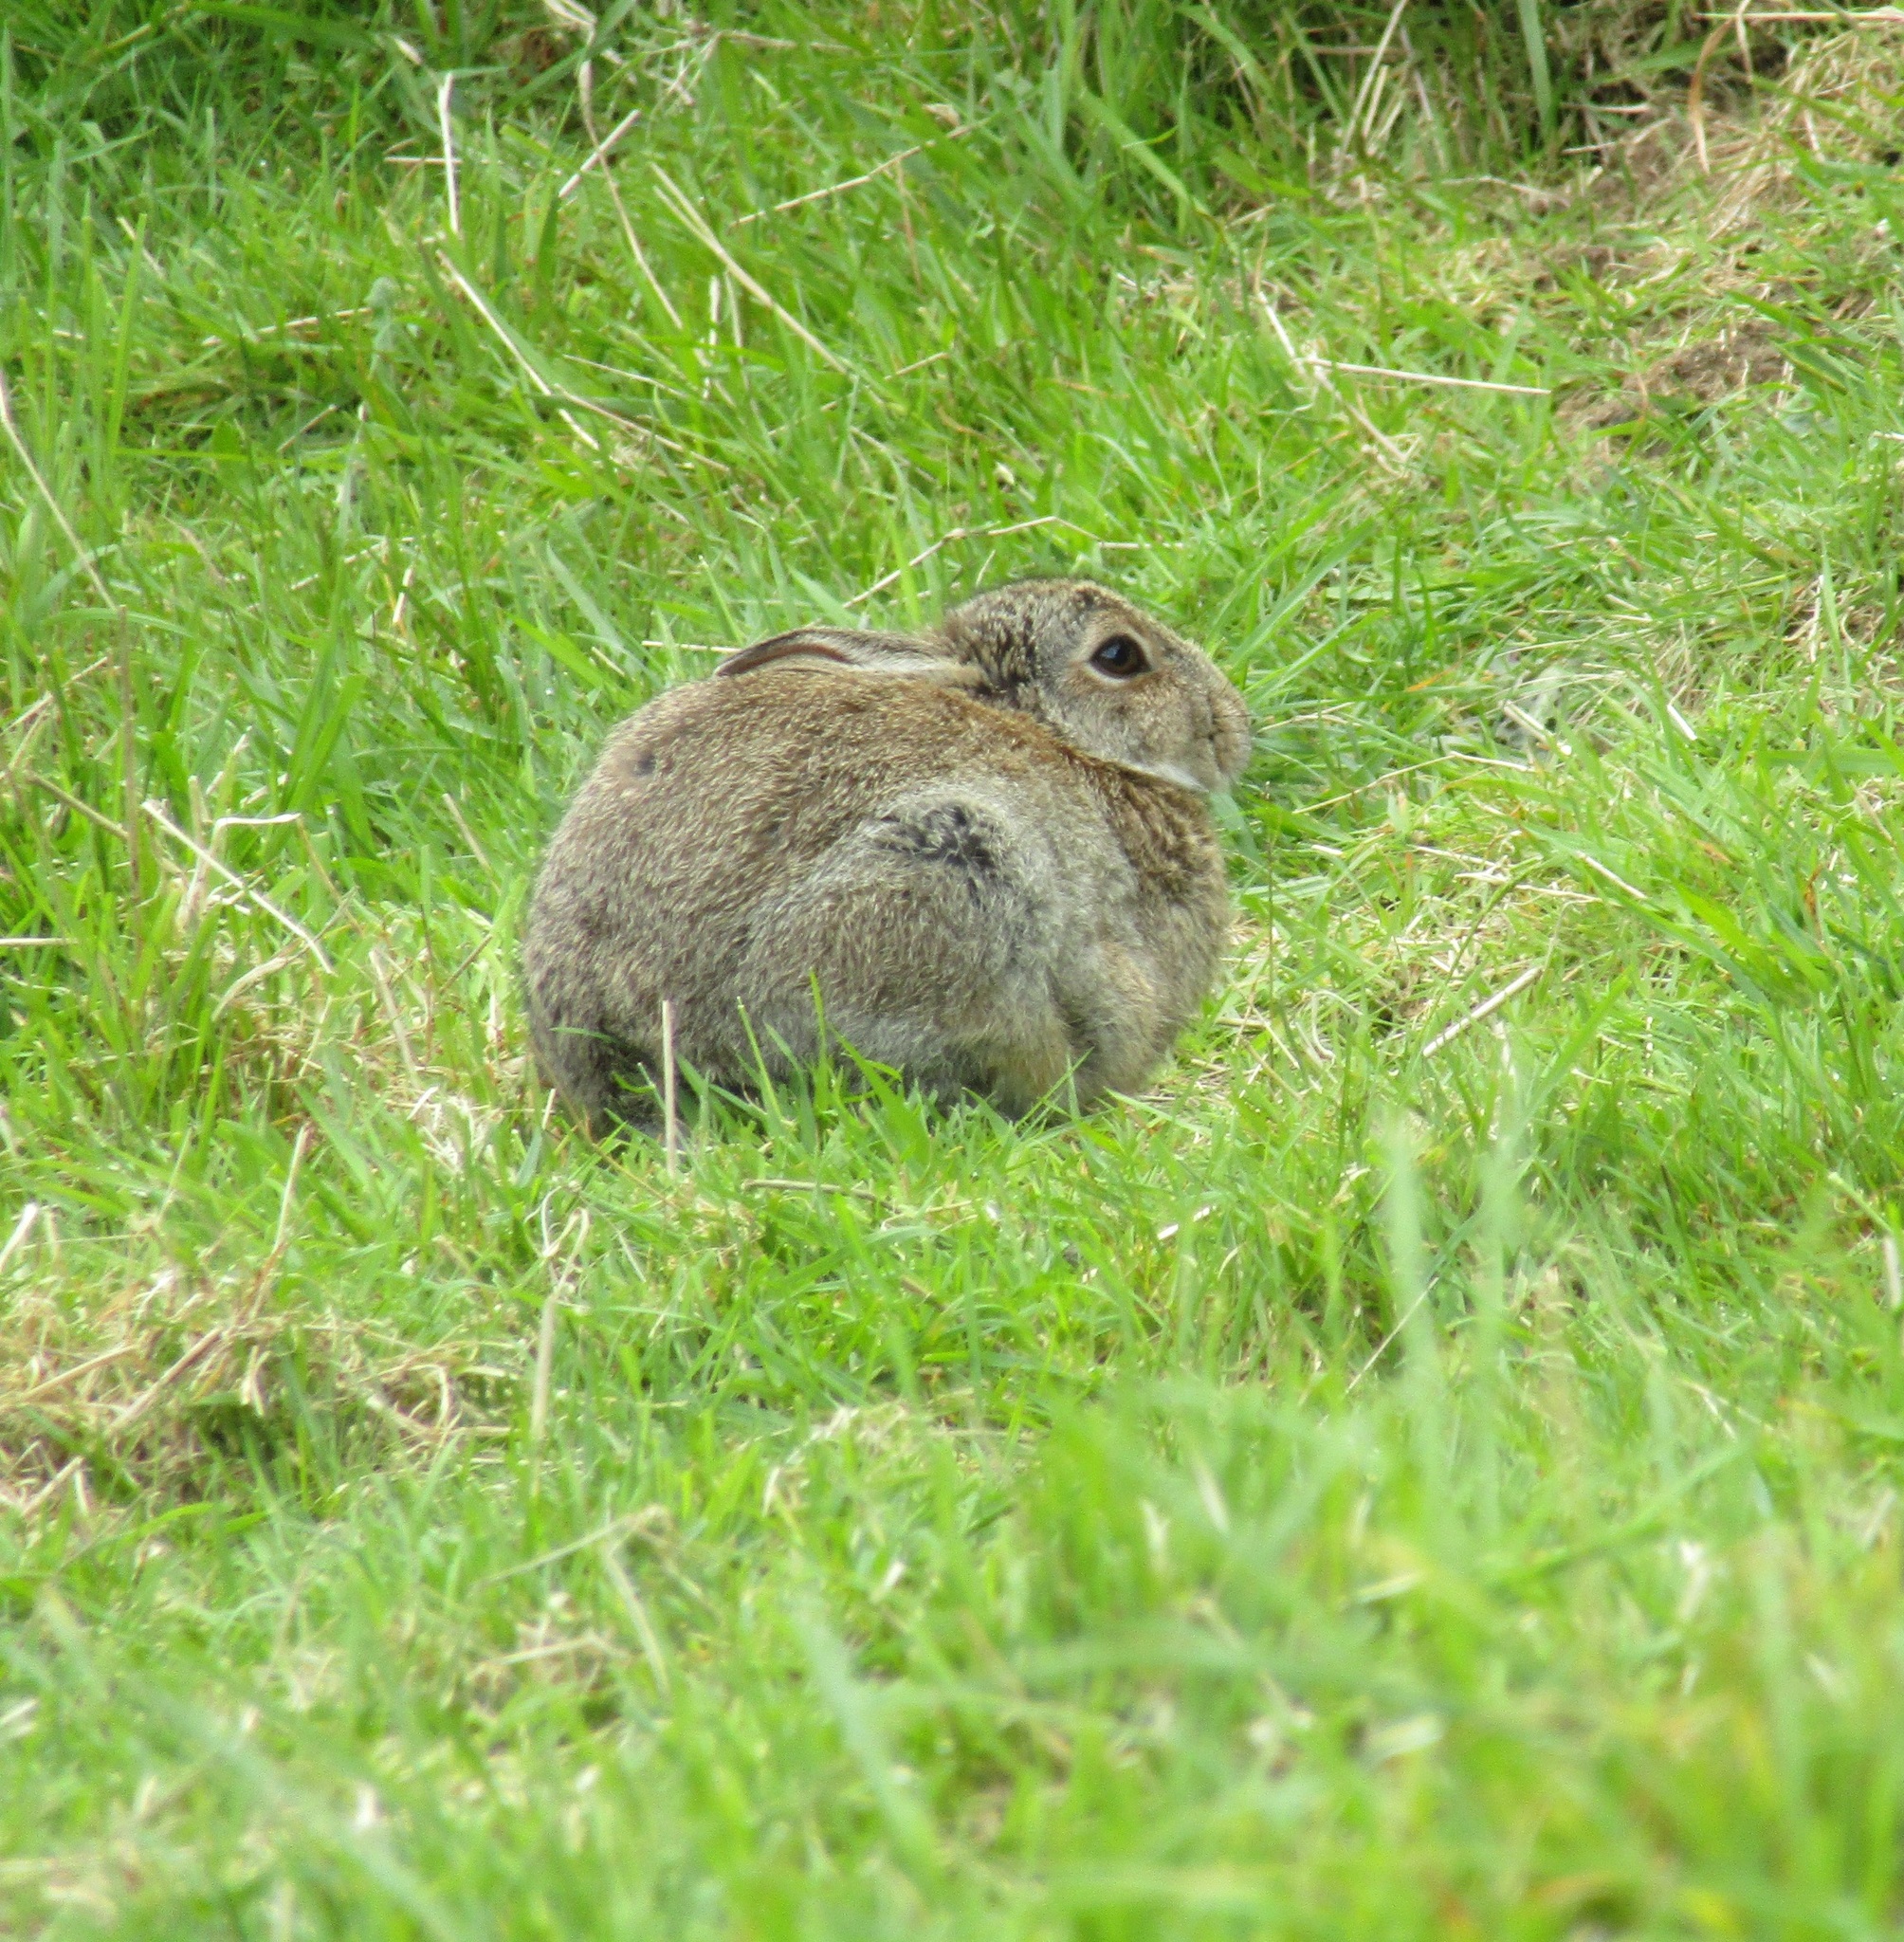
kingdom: Animalia
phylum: Chordata
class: Mammalia
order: Lagomorpha
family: Leporidae
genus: Oryctolagus
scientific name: Oryctolagus cuniculus
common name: European rabbit
